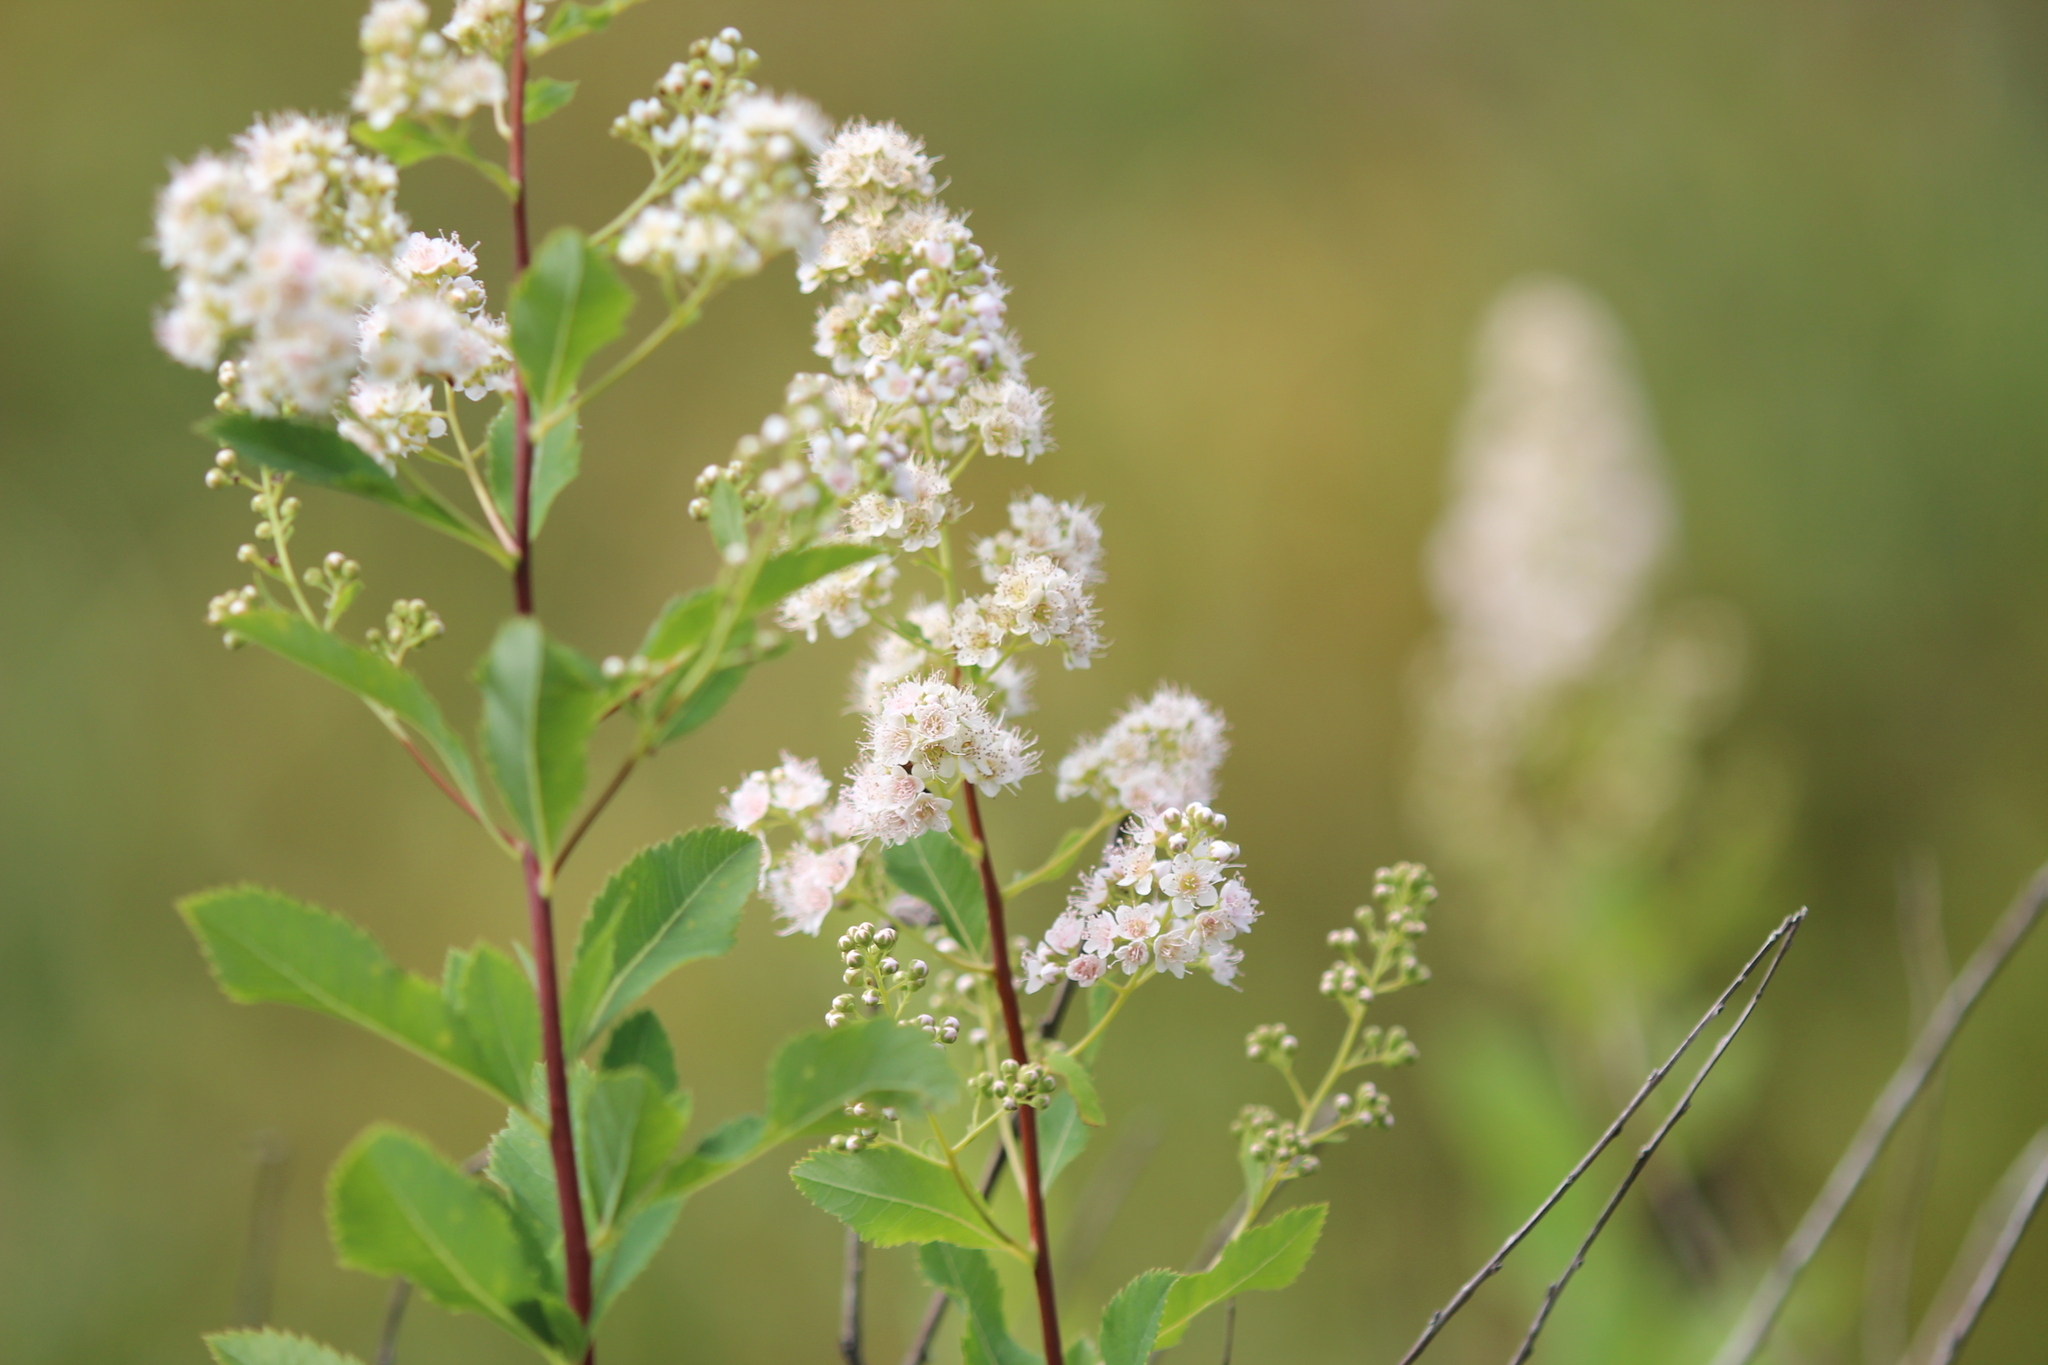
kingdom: Plantae
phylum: Tracheophyta
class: Magnoliopsida
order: Rosales
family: Rosaceae
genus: Spiraea
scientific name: Spiraea alba
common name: Pale bridewort
